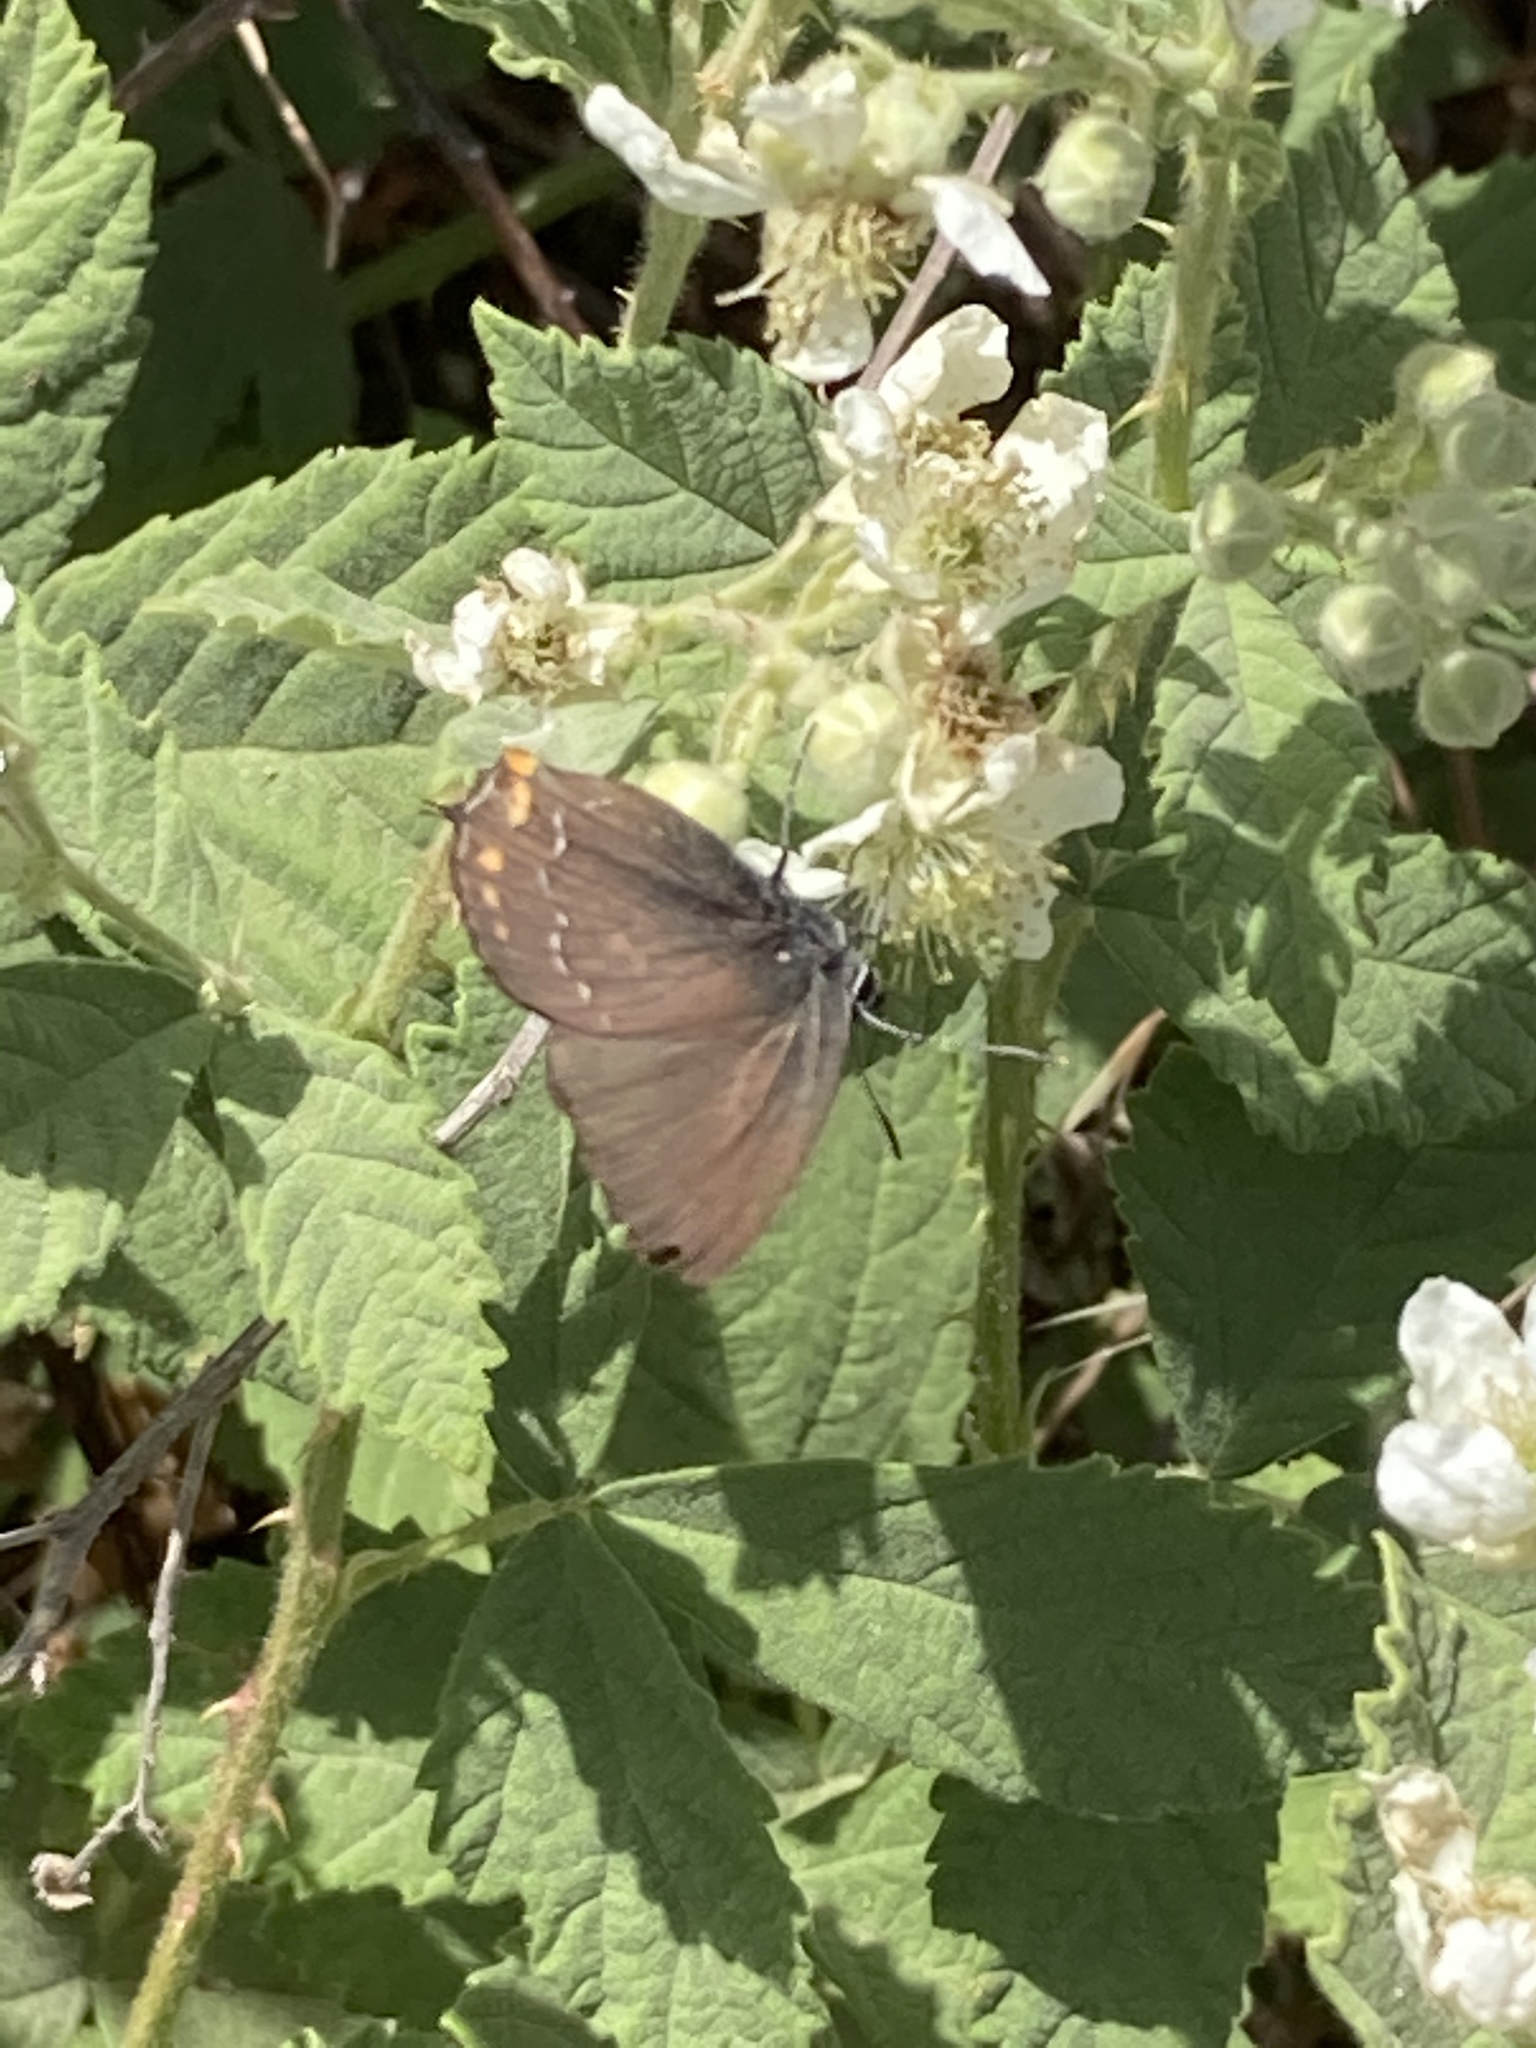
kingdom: Animalia
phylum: Arthropoda
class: Insecta
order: Lepidoptera
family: Lycaenidae
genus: Nordmannia
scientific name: Nordmannia ilicis
